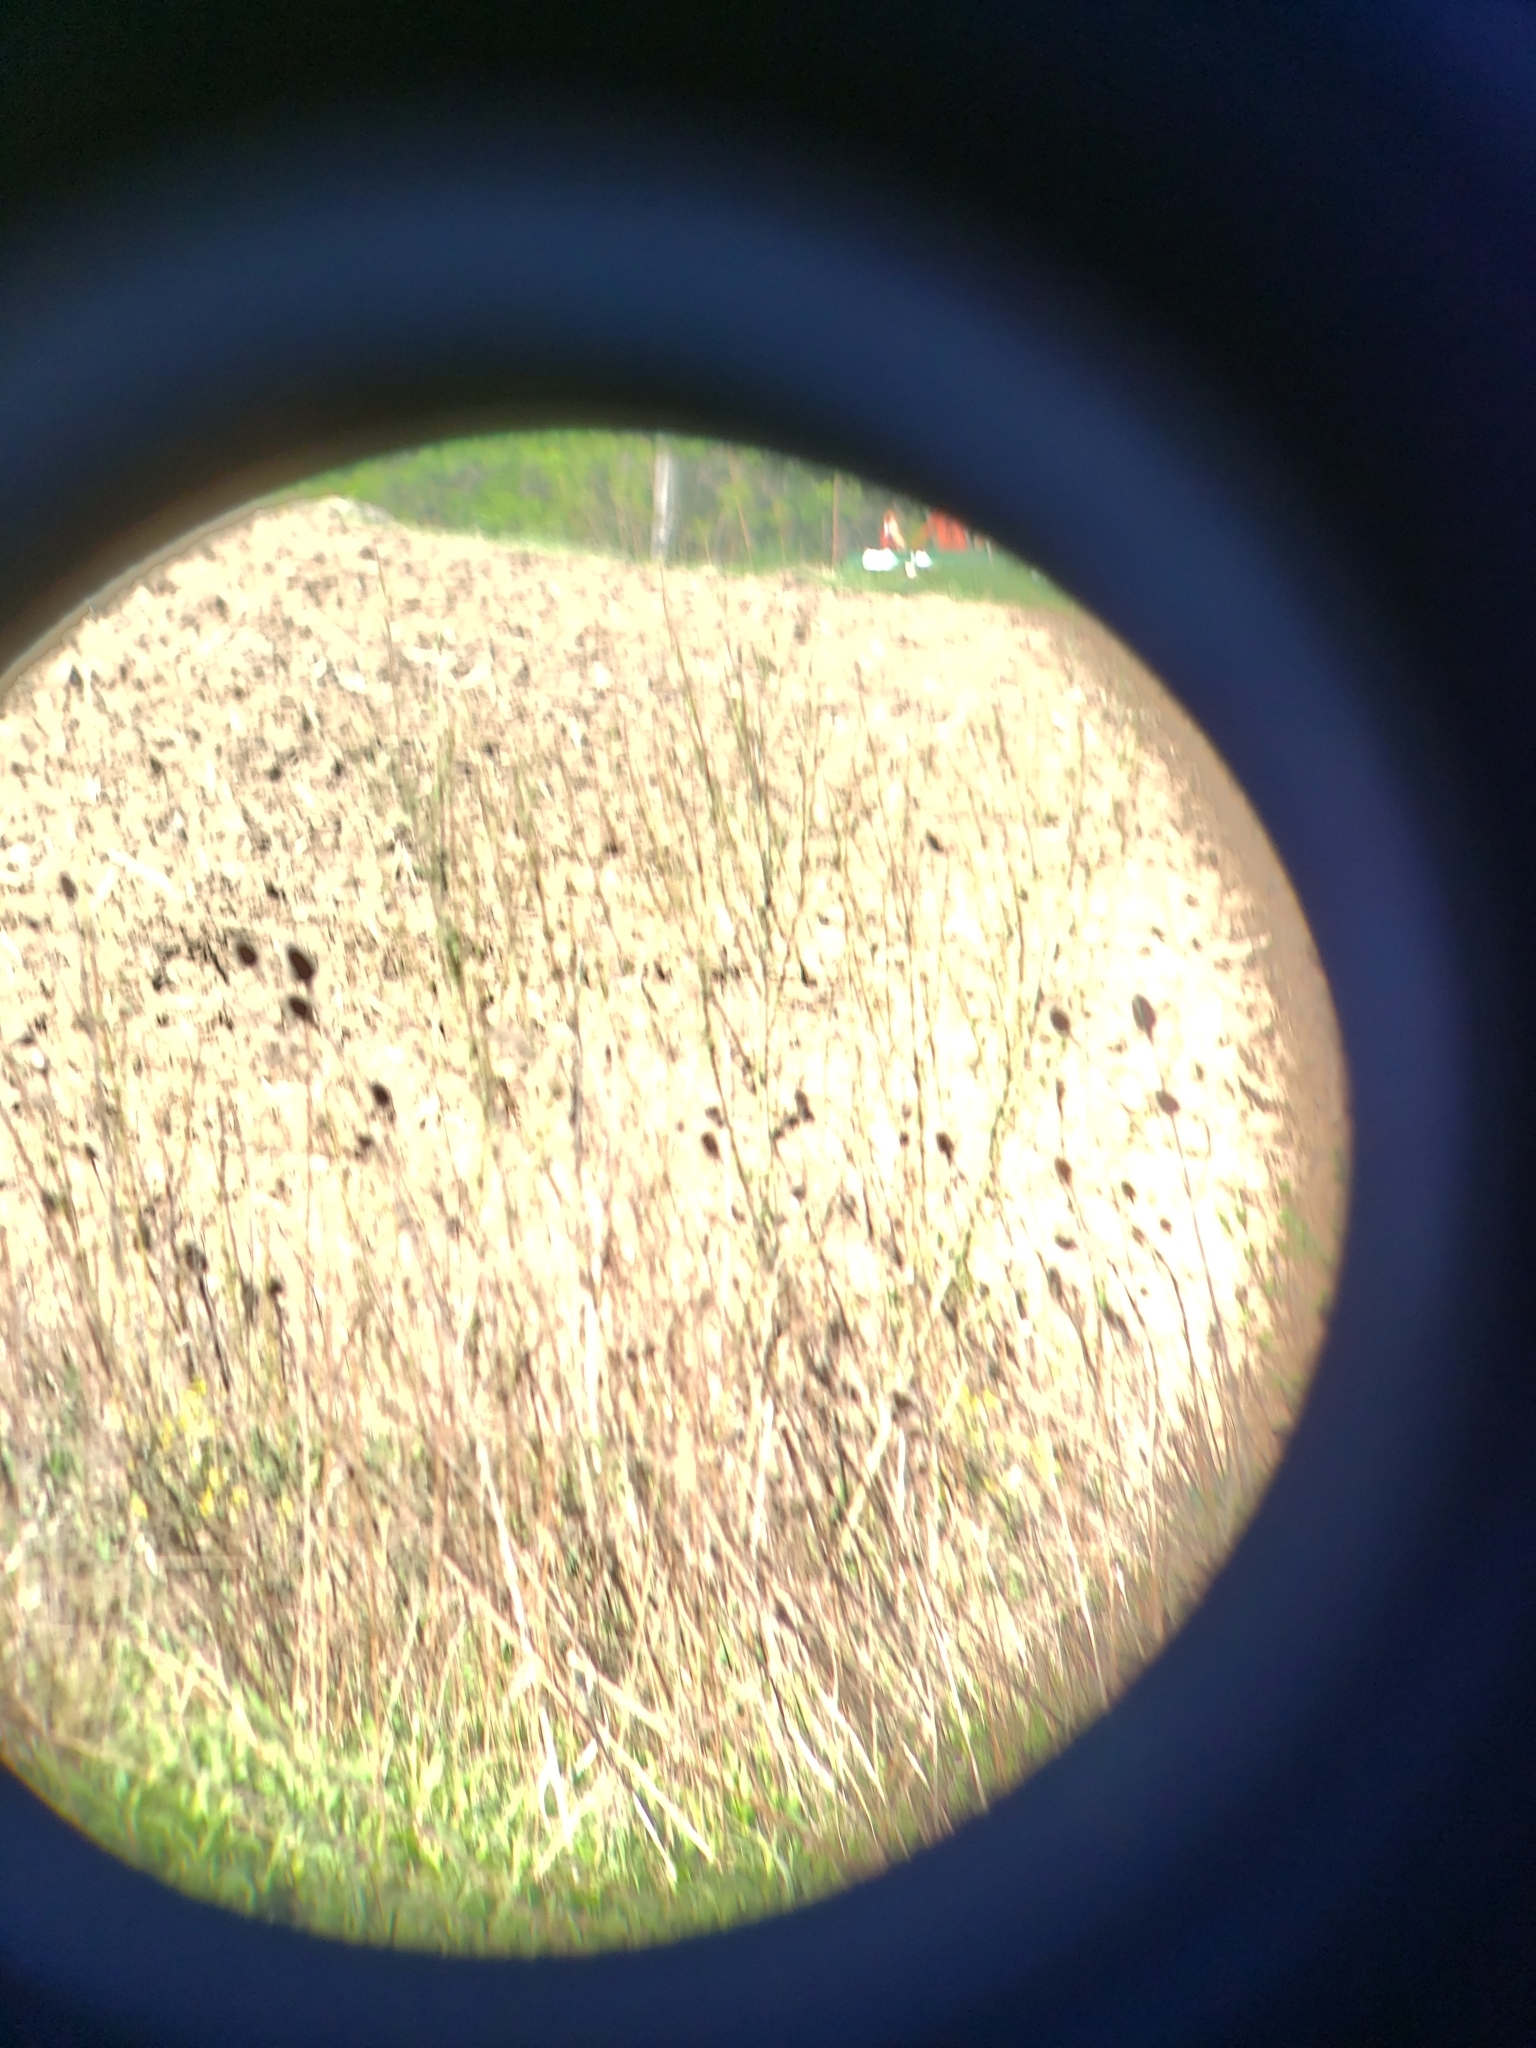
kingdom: Animalia
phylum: Chordata
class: Aves
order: Passeriformes
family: Passerellidae
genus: Passerculus
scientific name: Passerculus sandwichensis
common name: Savannah sparrow
